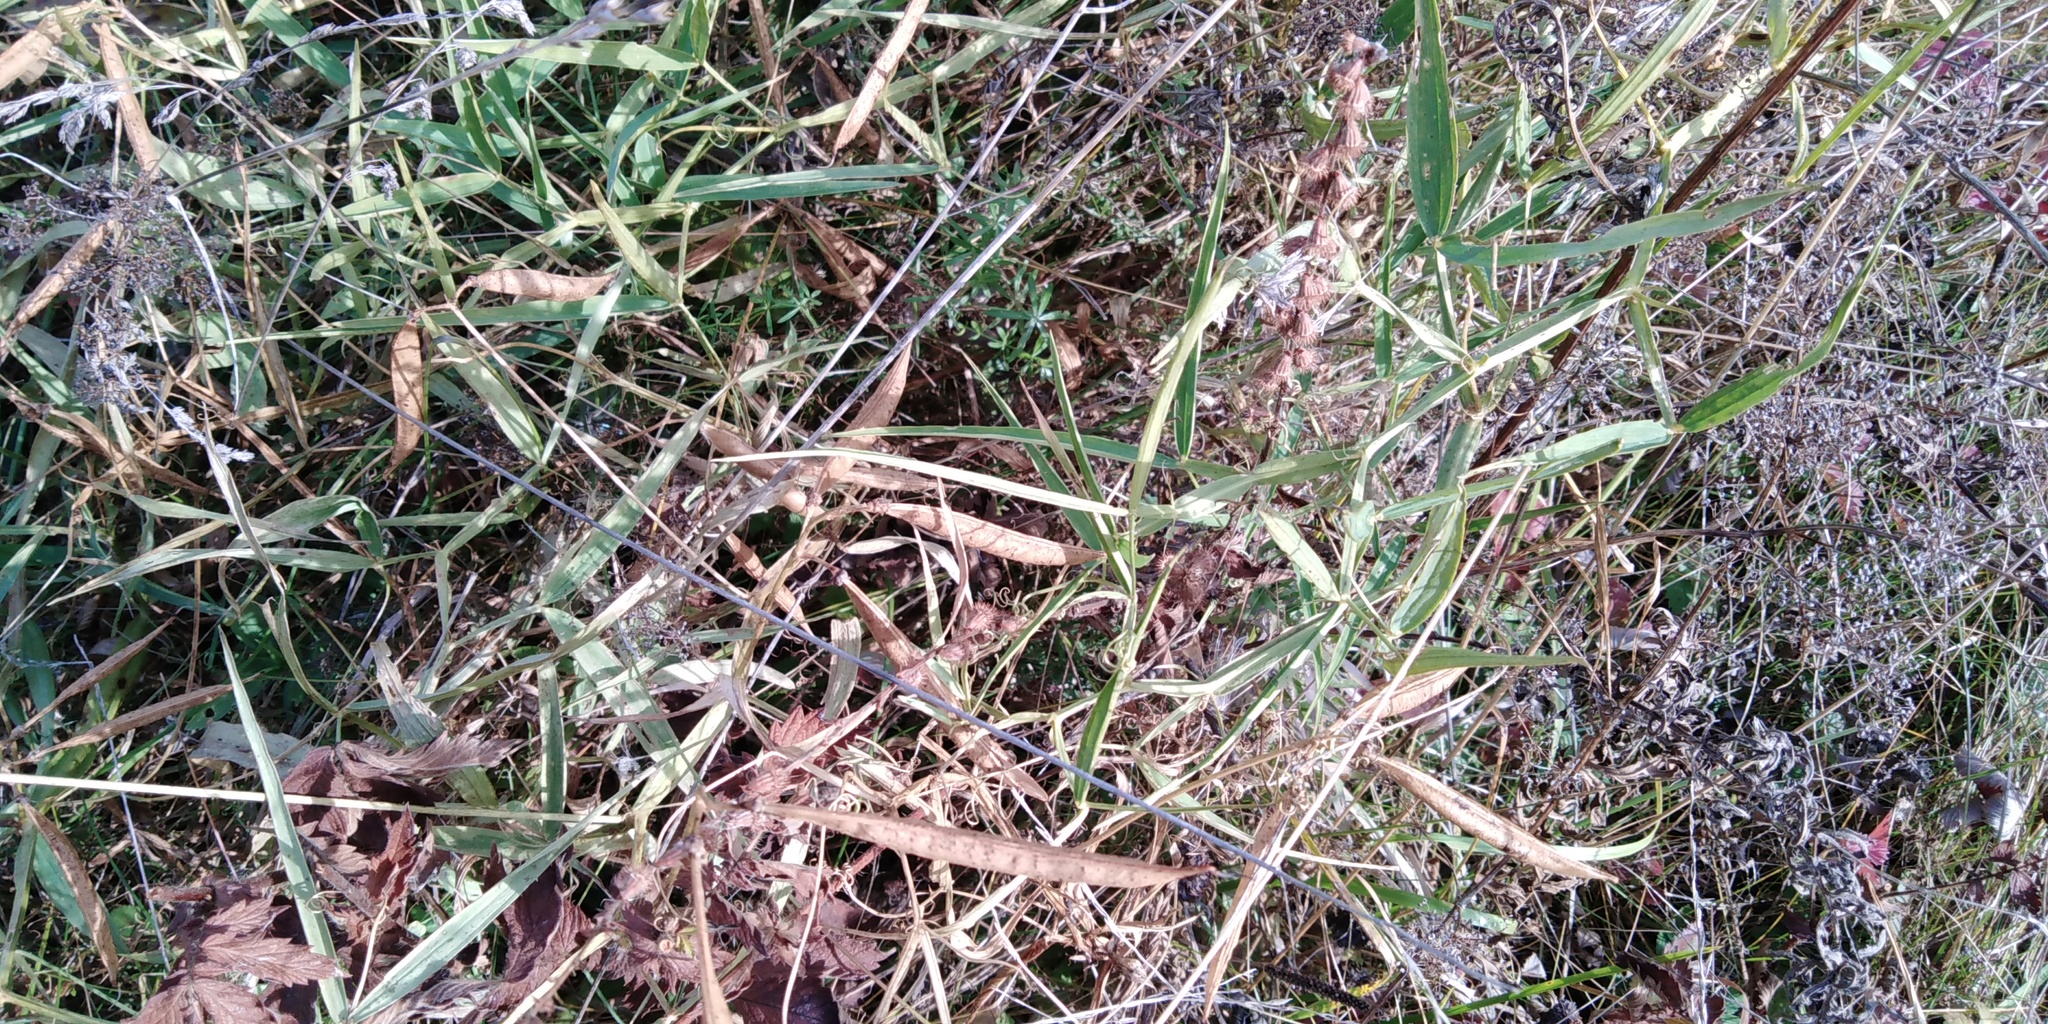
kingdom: Plantae
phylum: Tracheophyta
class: Magnoliopsida
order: Fabales
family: Fabaceae
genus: Lathyrus
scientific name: Lathyrus sylvestris
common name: Flat pea
